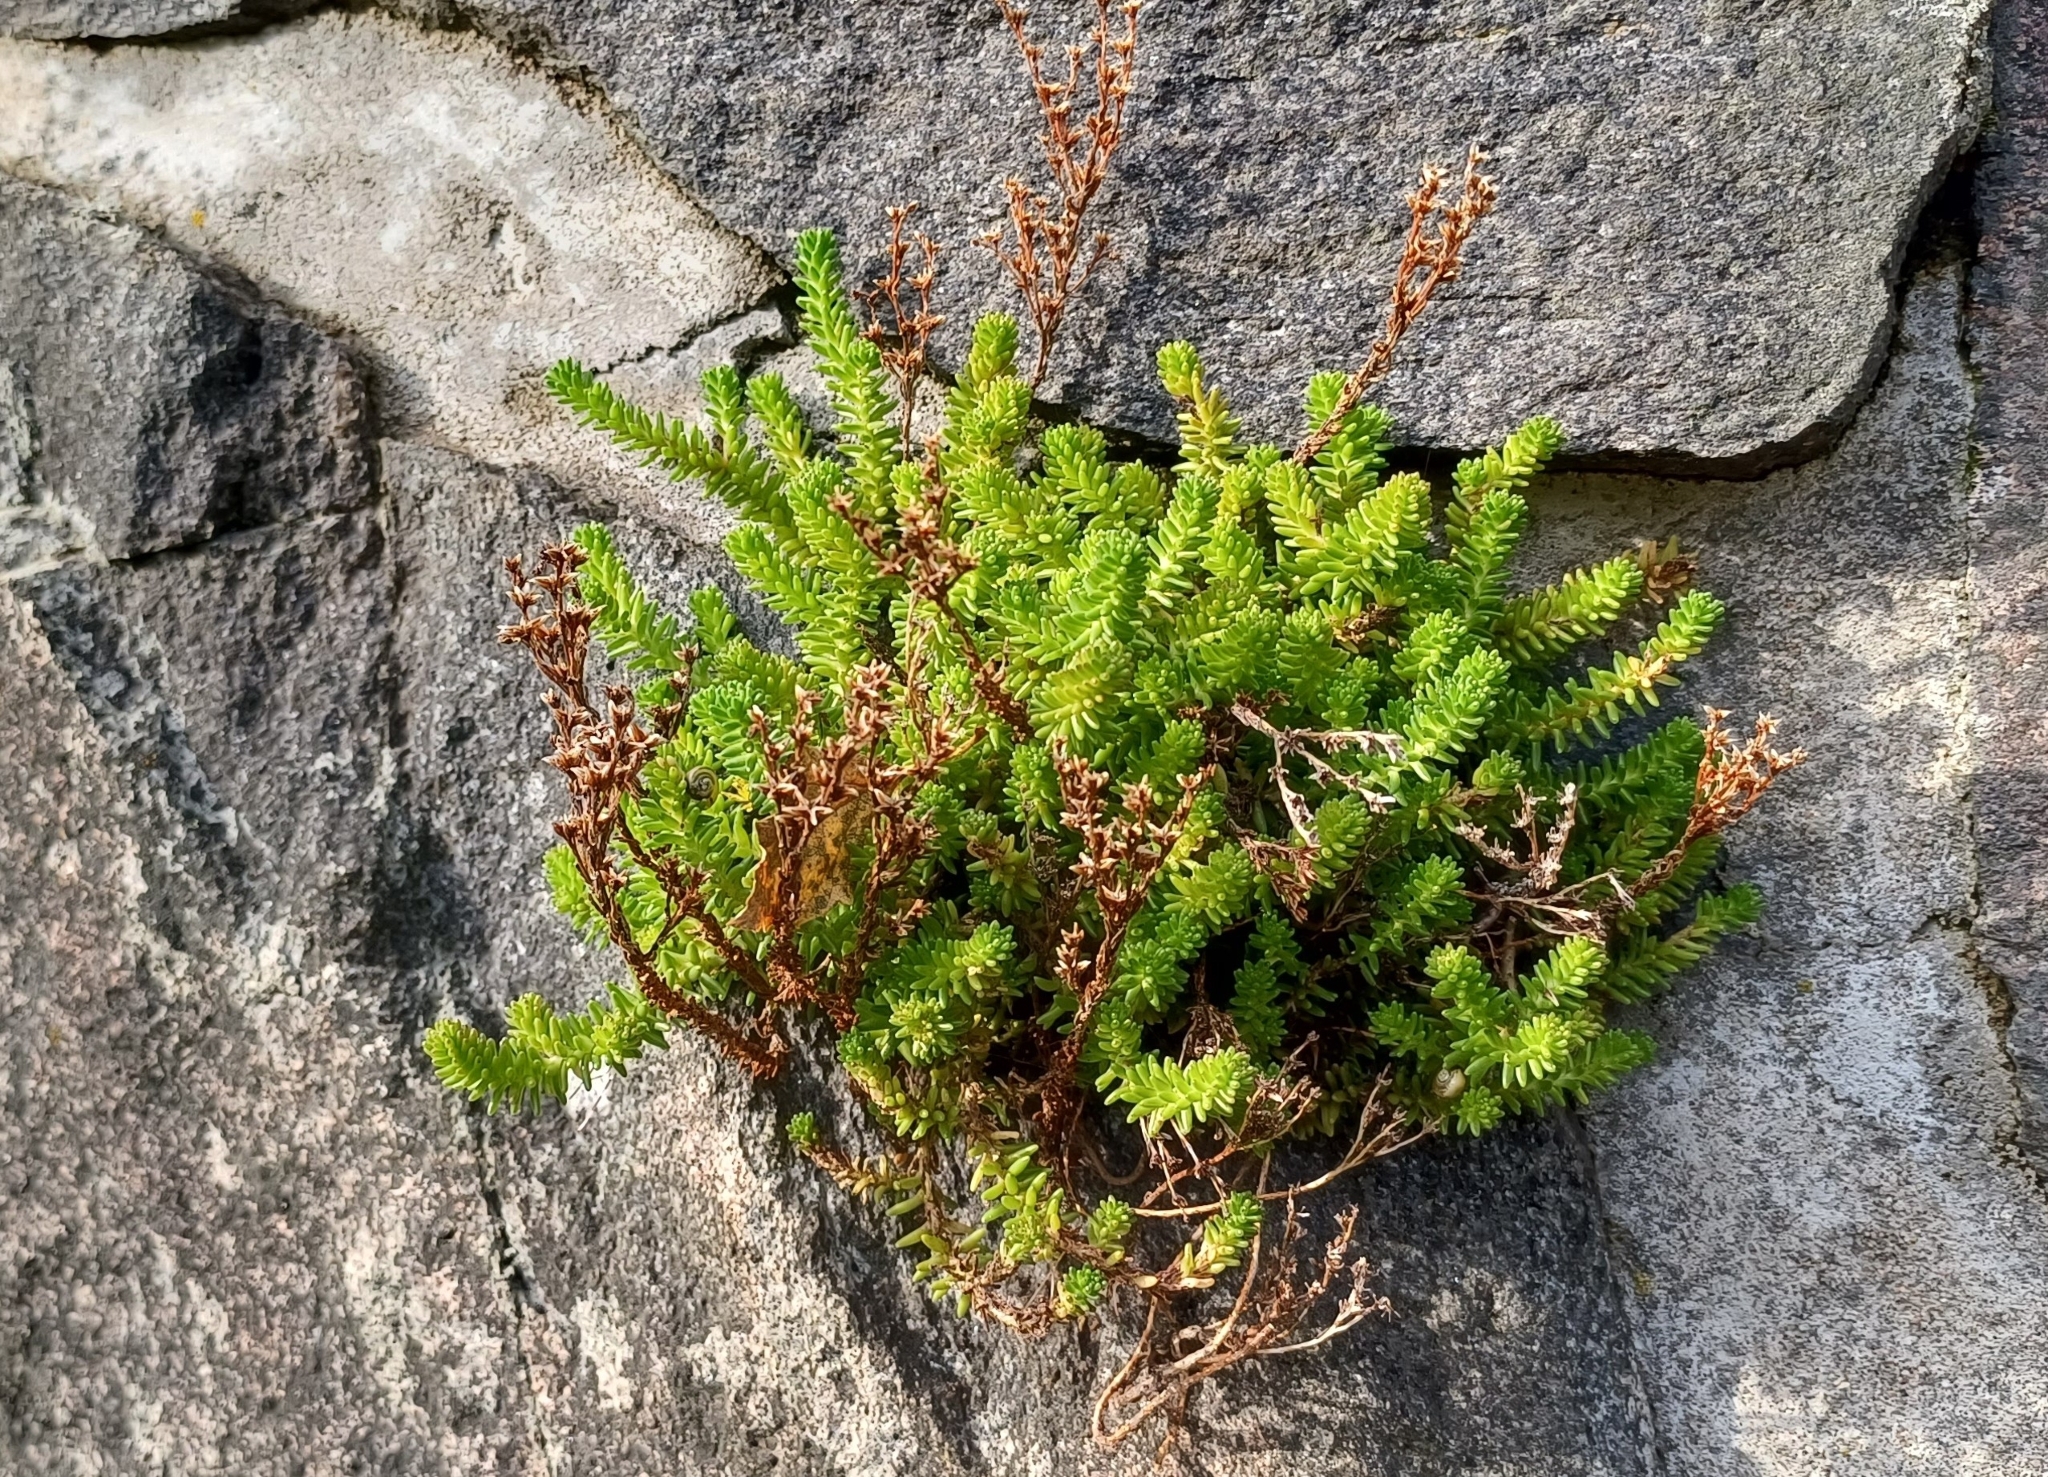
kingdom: Plantae
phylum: Tracheophyta
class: Magnoliopsida
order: Saxifragales
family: Crassulaceae
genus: Sedum
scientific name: Sedum sexangulare
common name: Tasteless stonecrop
